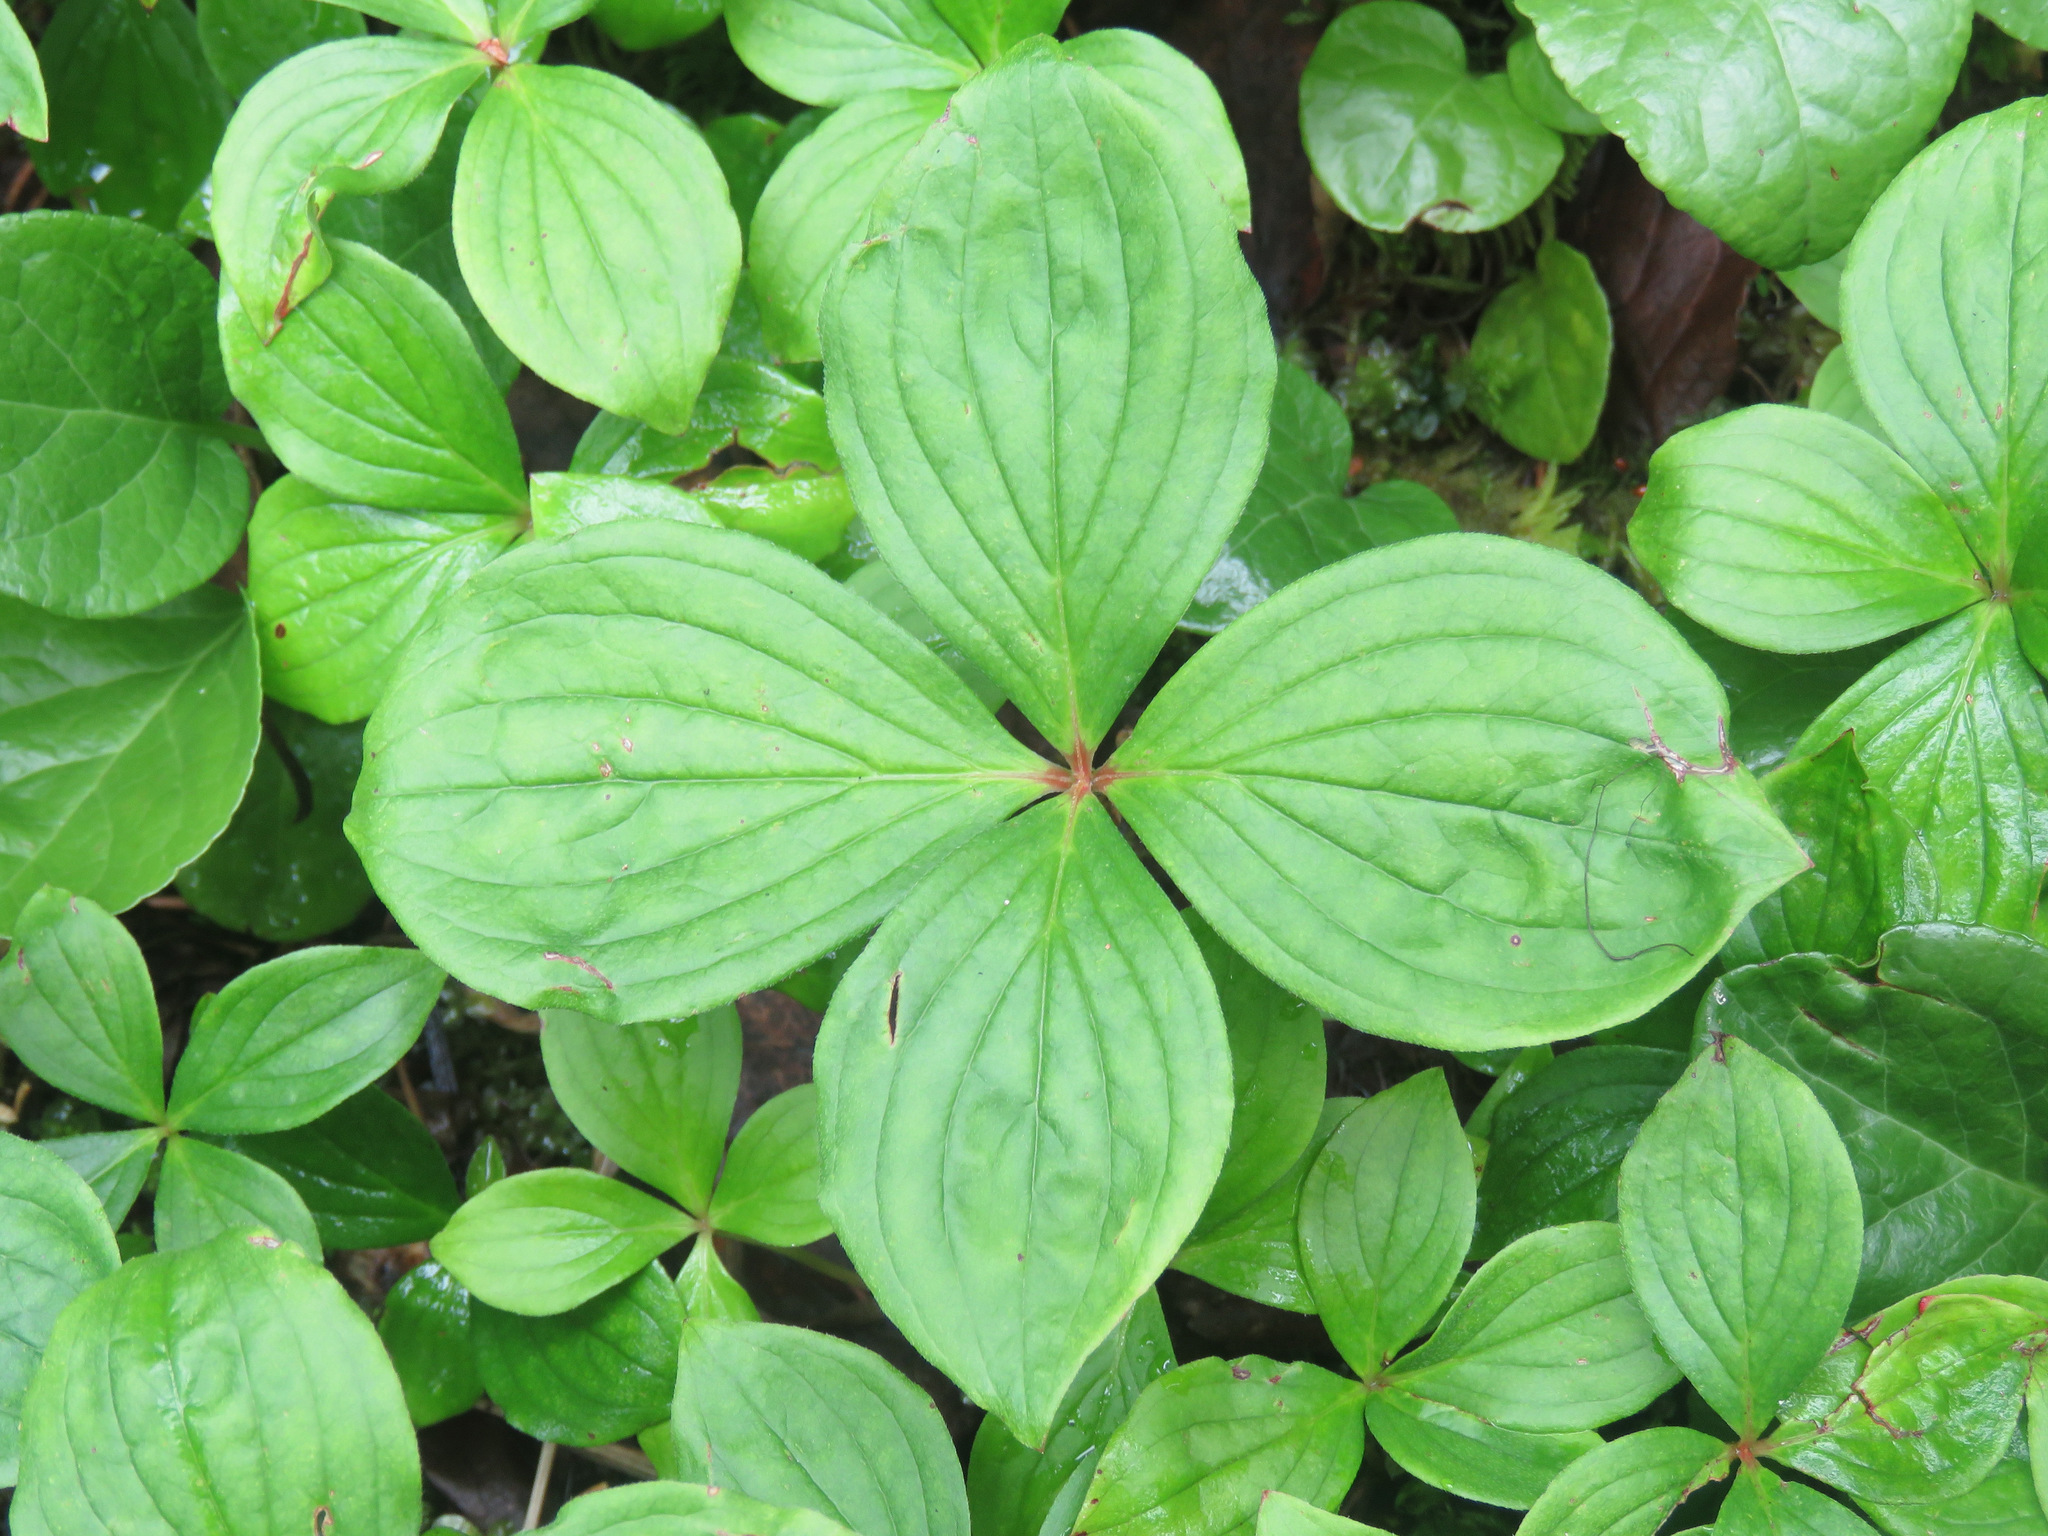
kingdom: Plantae
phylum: Tracheophyta
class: Magnoliopsida
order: Cornales
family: Cornaceae
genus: Cornus
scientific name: Cornus canadensis
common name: Creeping dogwood
